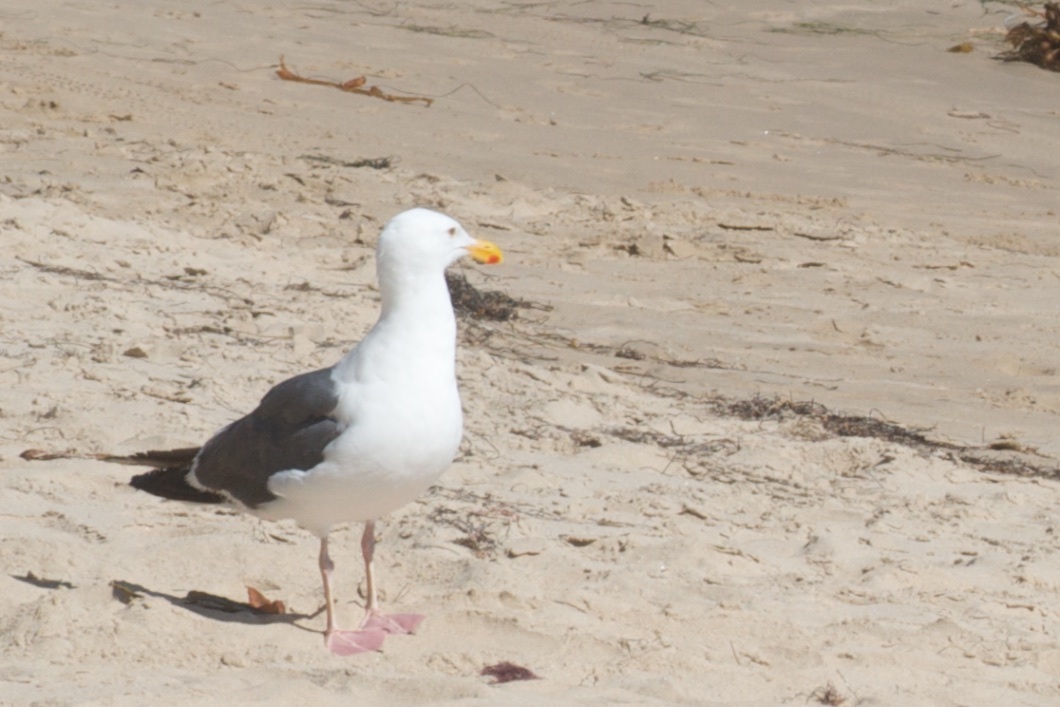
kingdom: Animalia
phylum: Chordata
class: Aves
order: Charadriiformes
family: Laridae
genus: Larus
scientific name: Larus occidentalis
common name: Western gull
